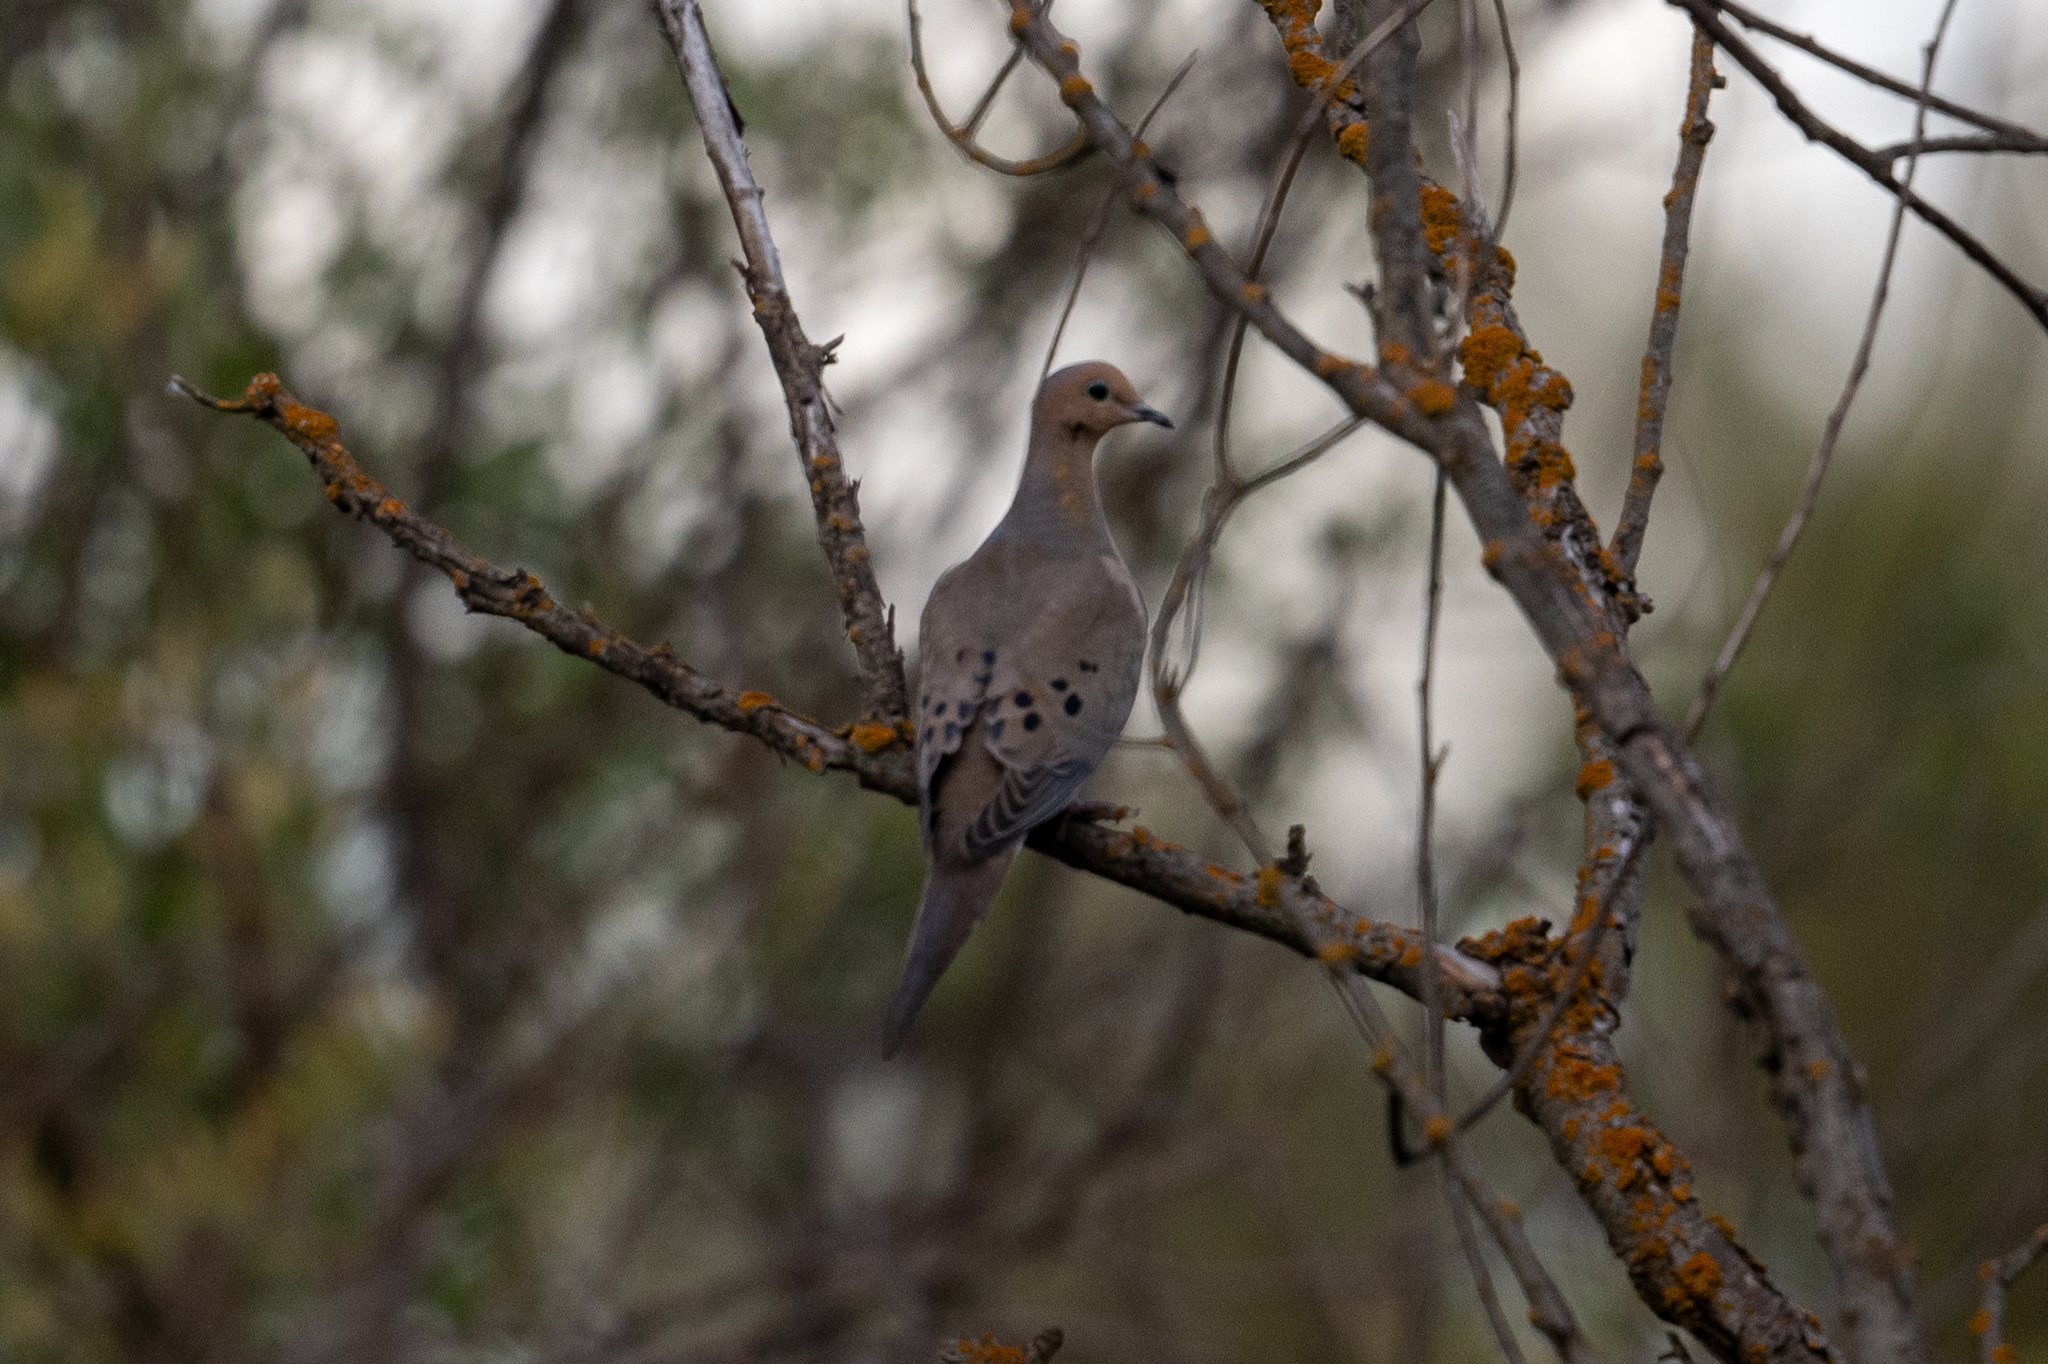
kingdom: Animalia
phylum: Chordata
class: Aves
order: Columbiformes
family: Columbidae
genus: Zenaida
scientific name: Zenaida macroura
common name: Mourning dove
